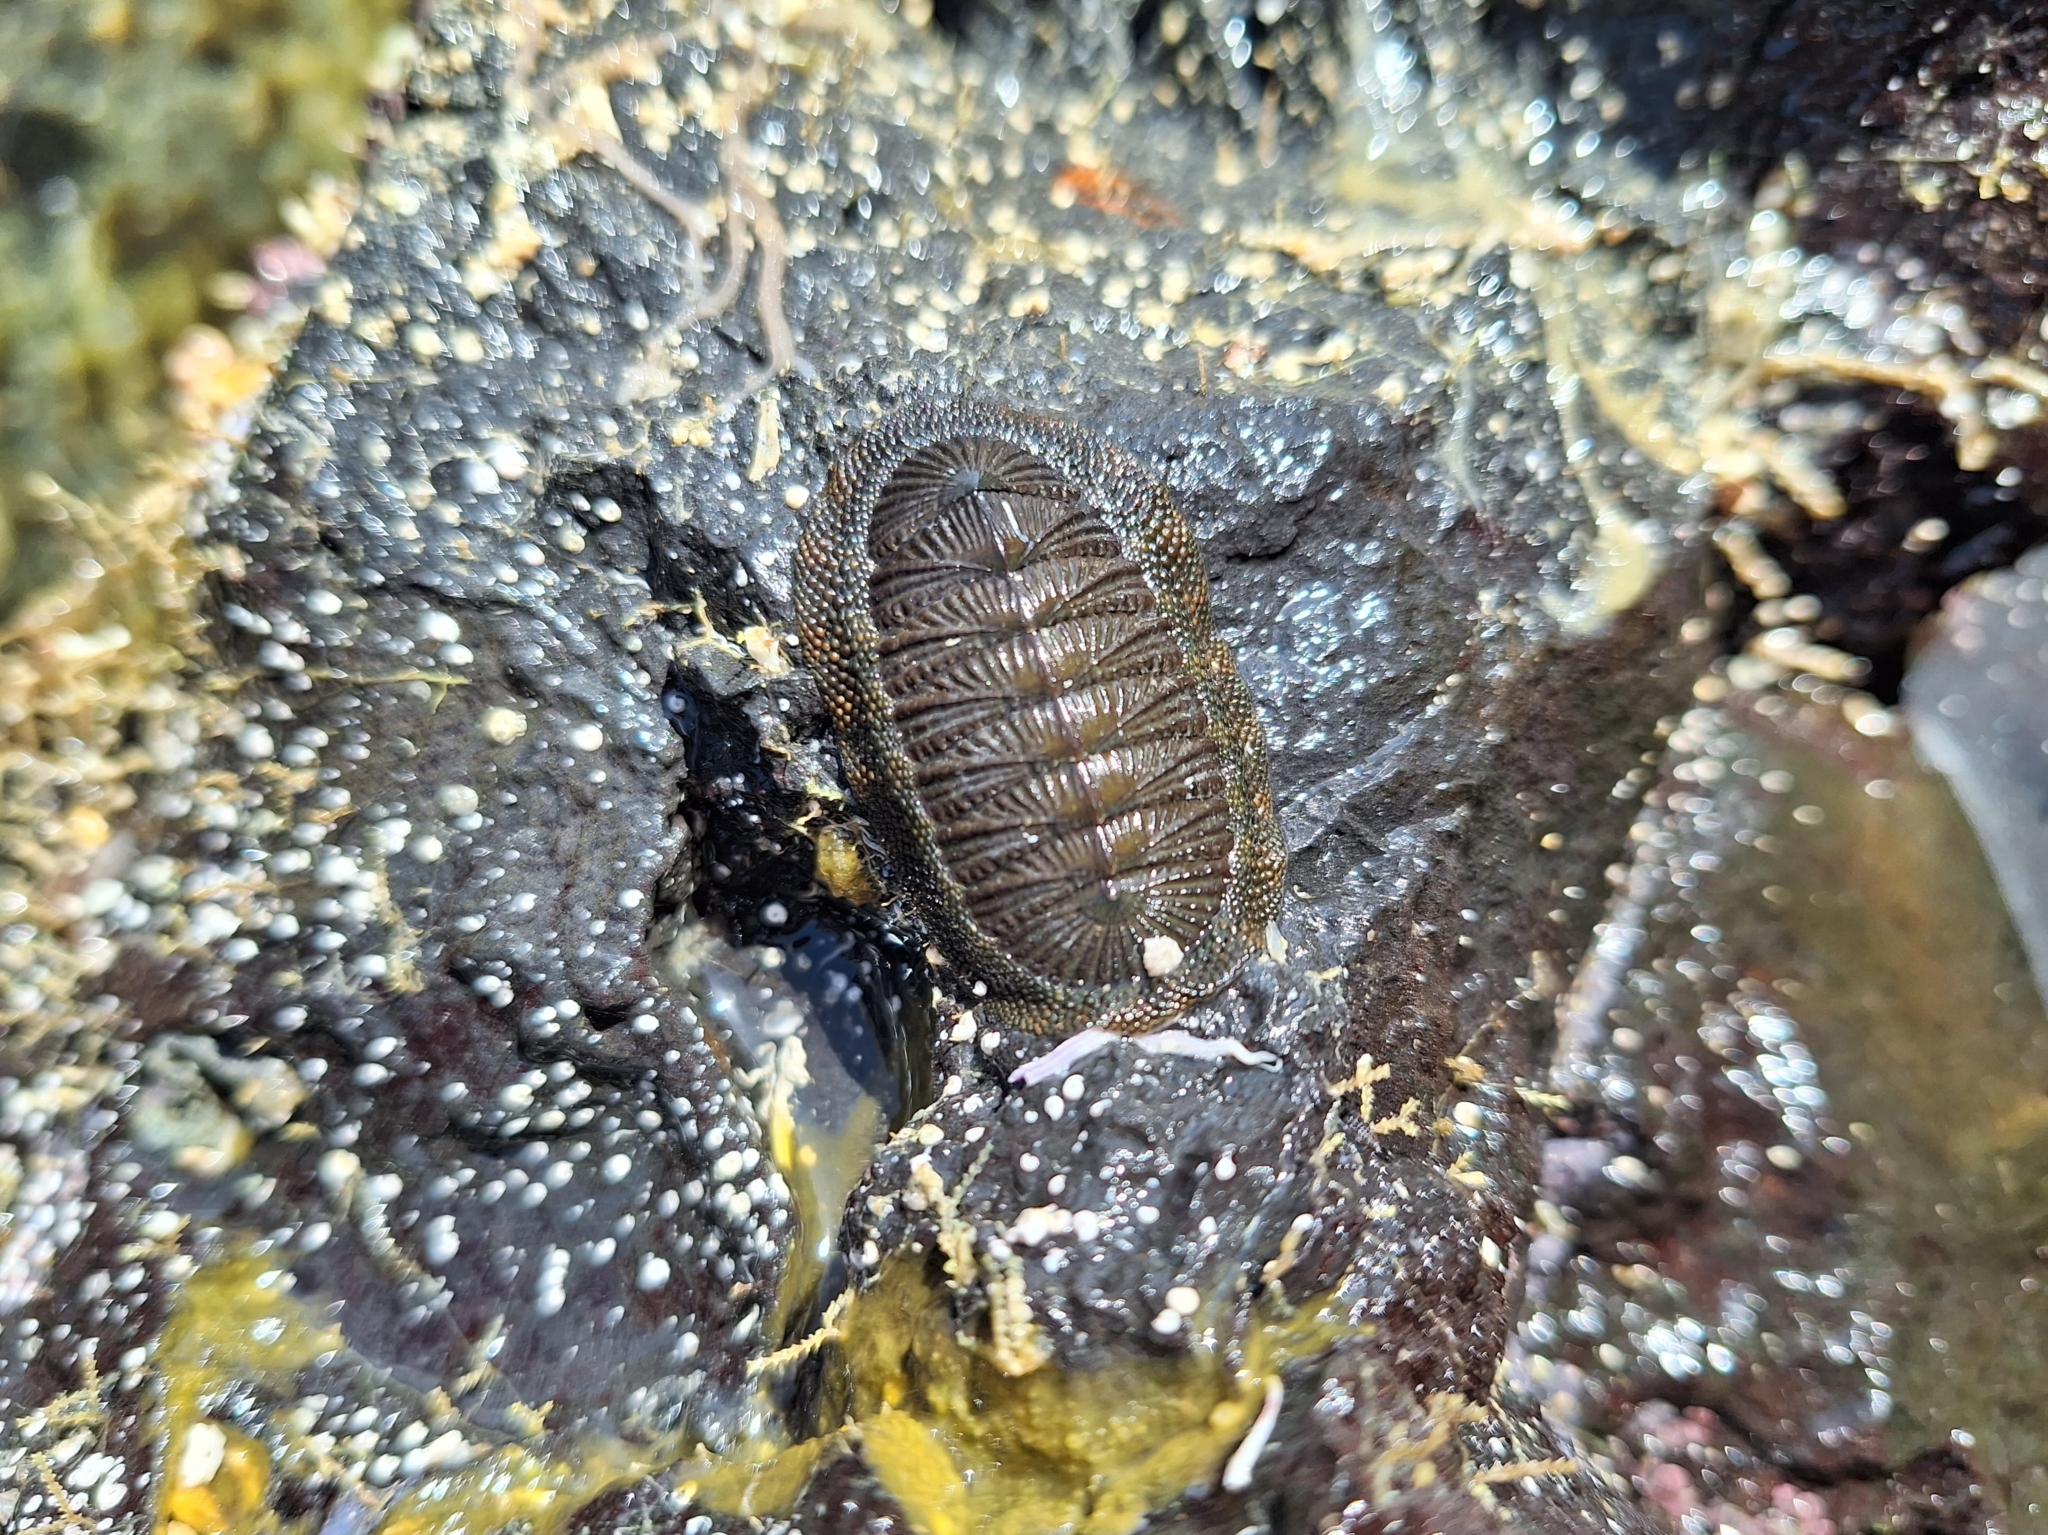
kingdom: Animalia
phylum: Mollusca
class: Polyplacophora
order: Chitonida
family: Chitonidae
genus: Radsia
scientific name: Radsia sulcatus
